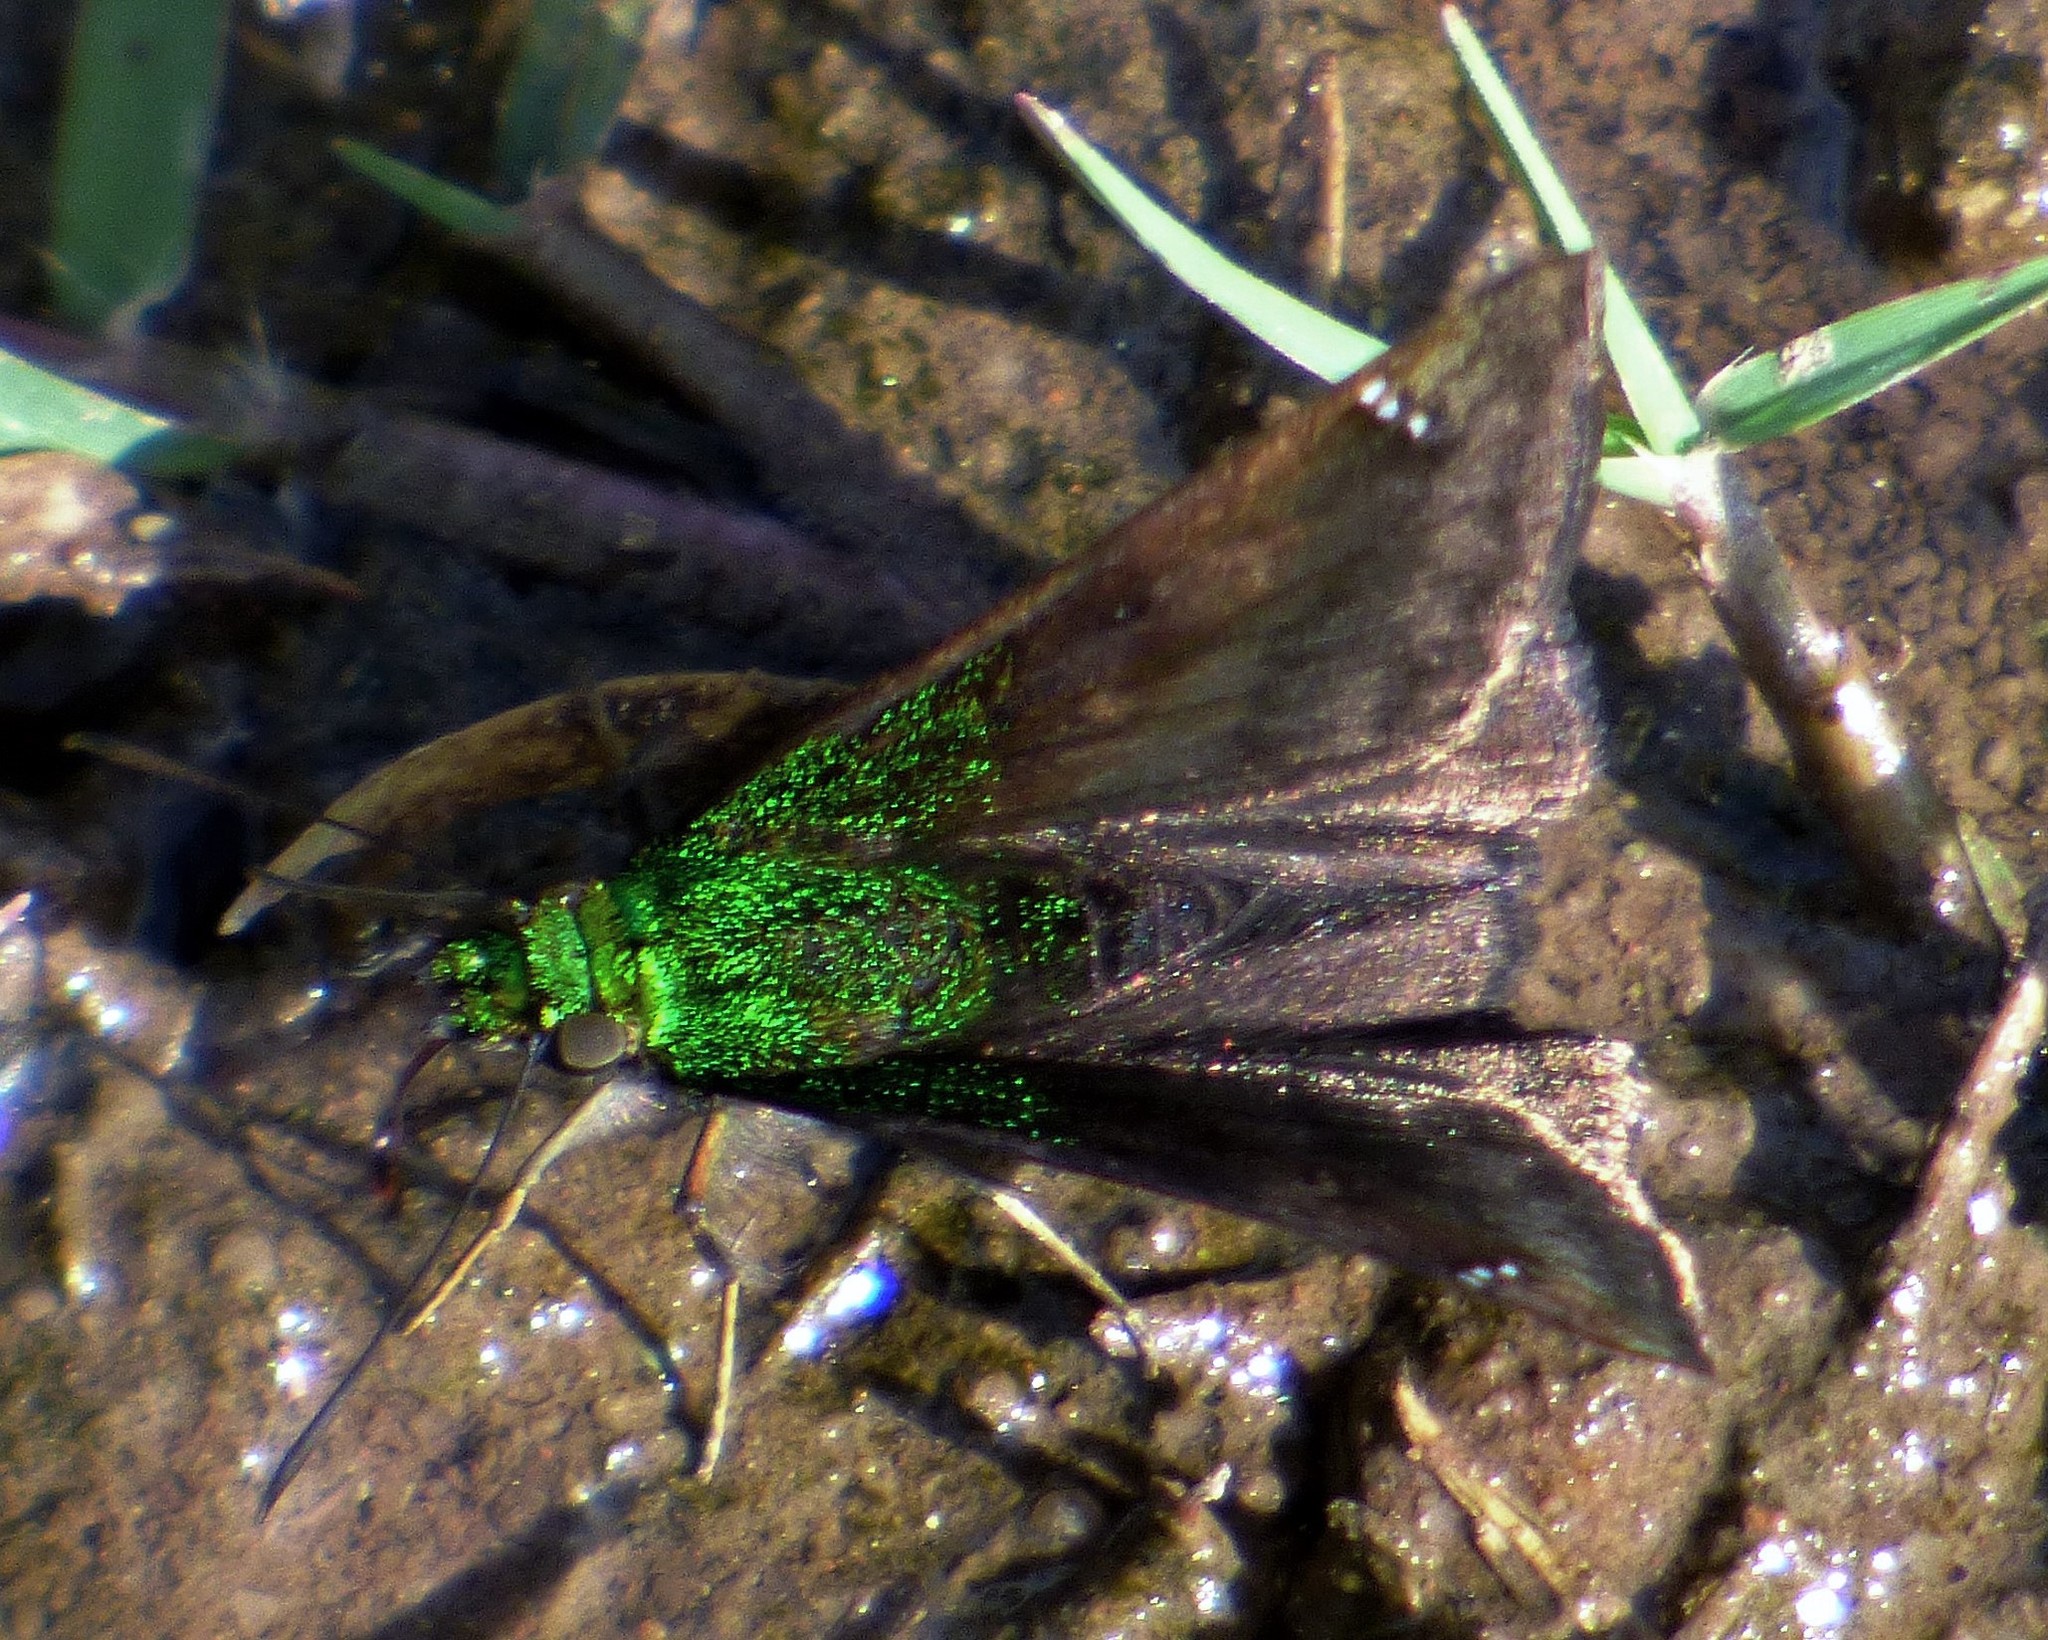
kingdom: Animalia
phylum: Arthropoda
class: Insecta
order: Lepidoptera
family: Hesperiidae
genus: Gorgopas
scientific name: Gorgopas trochilus
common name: Green-shouldered sootywing
